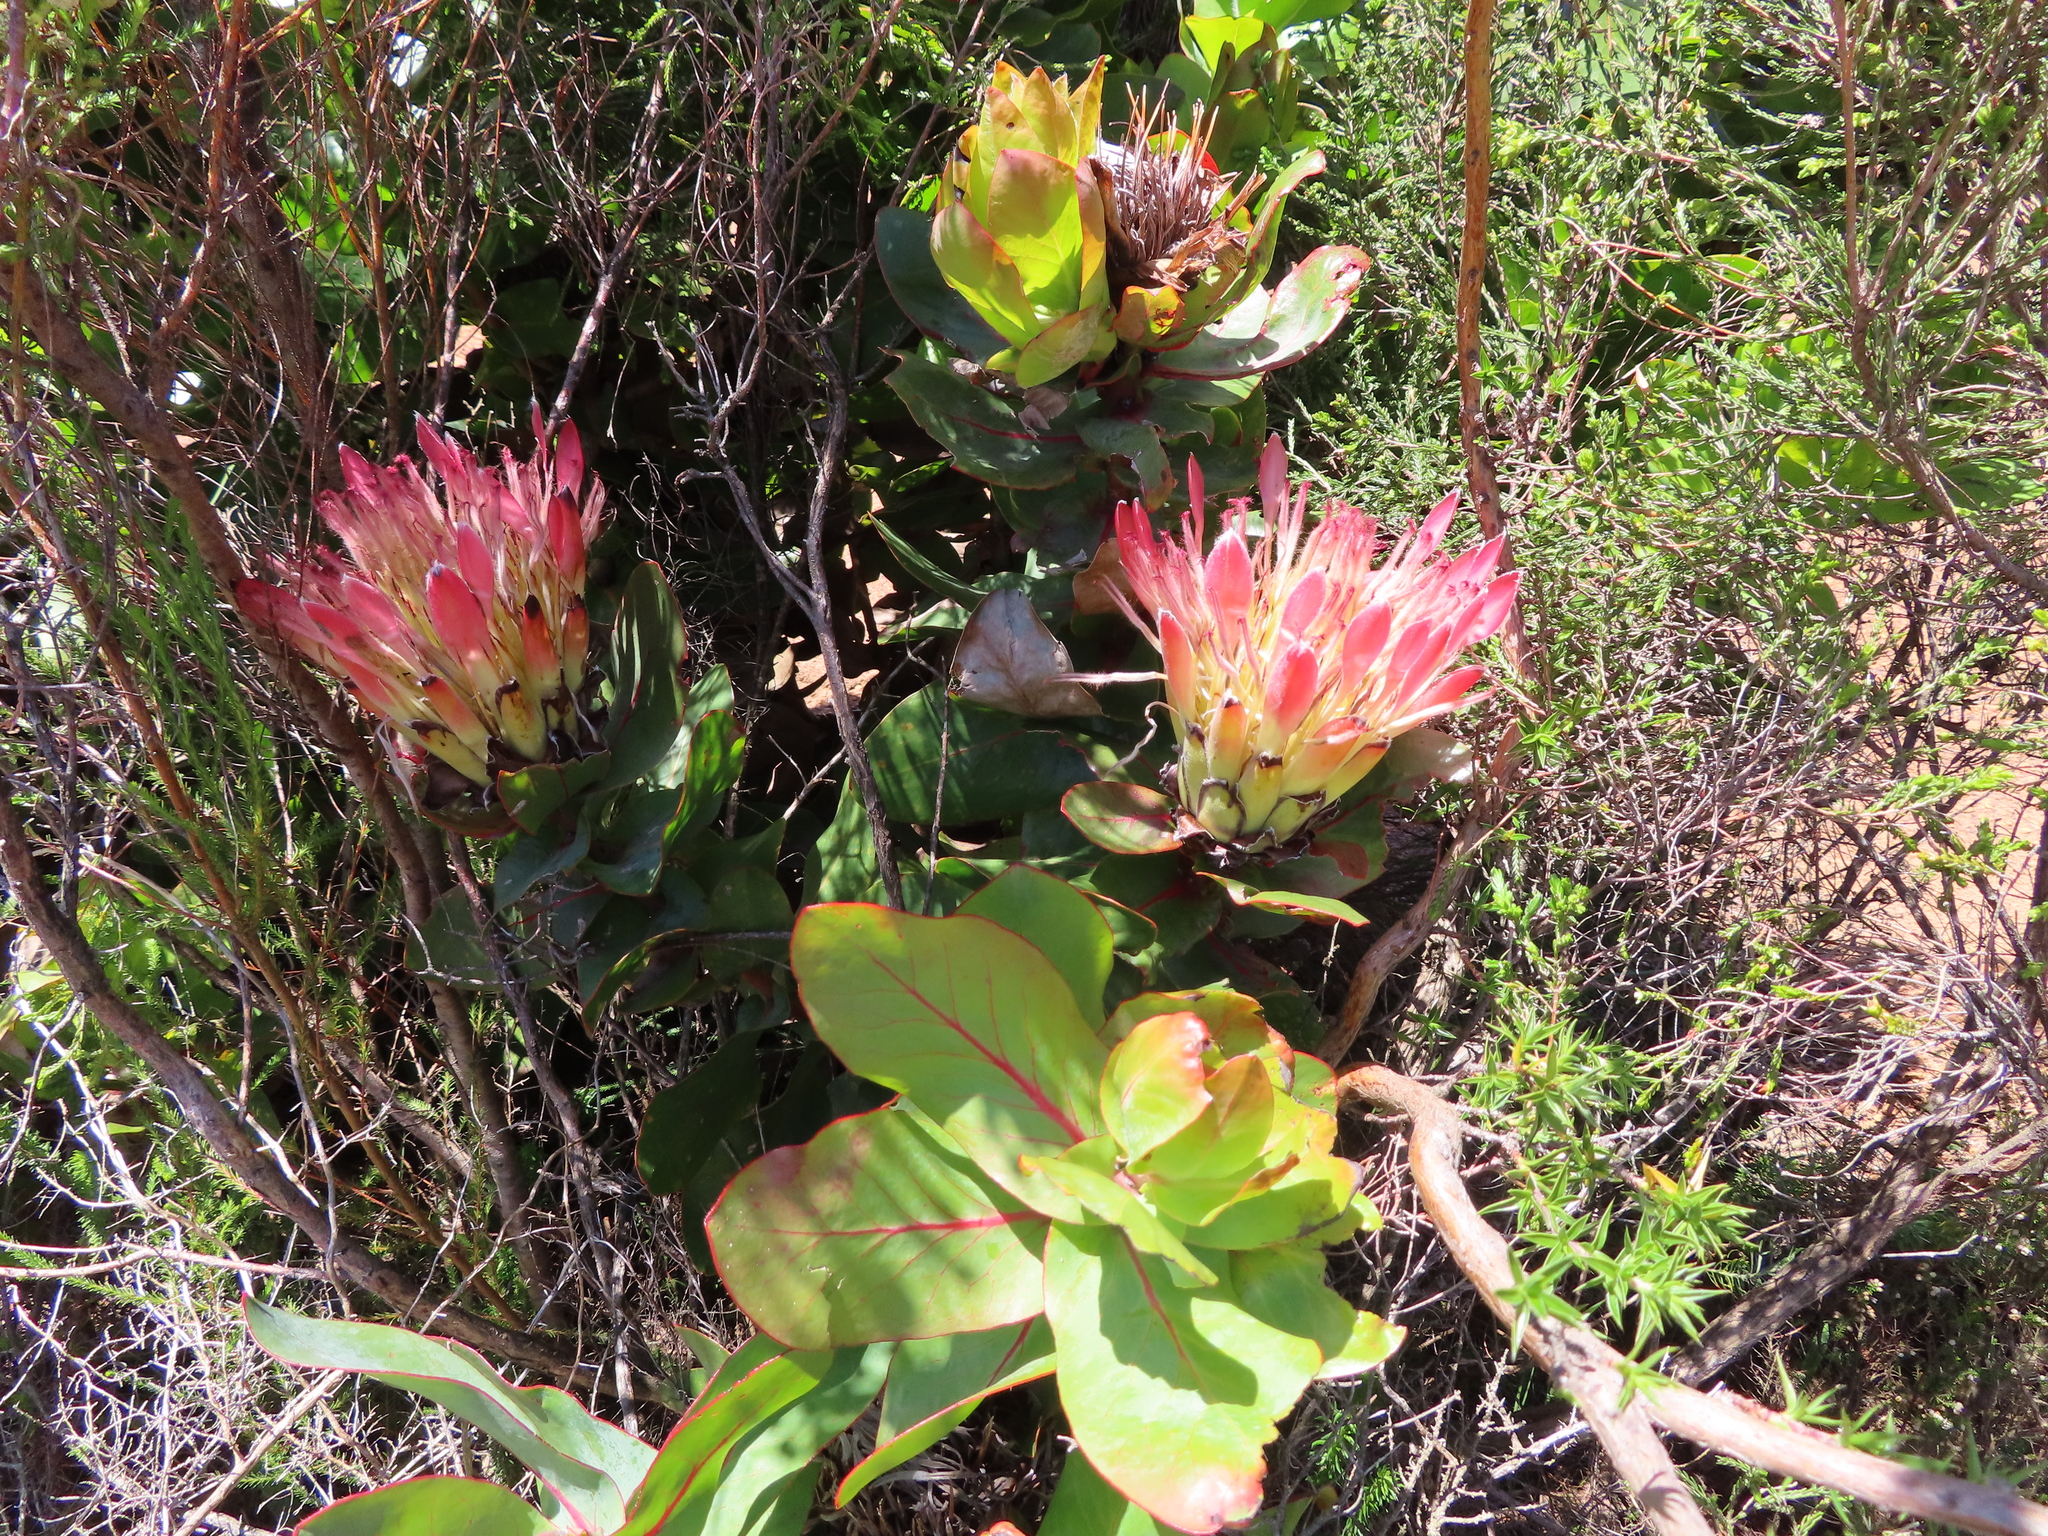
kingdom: Plantae
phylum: Tracheophyta
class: Magnoliopsida
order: Proteales
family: Proteaceae
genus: Protea
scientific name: Protea eximia
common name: Broad-leaved sugarbush
